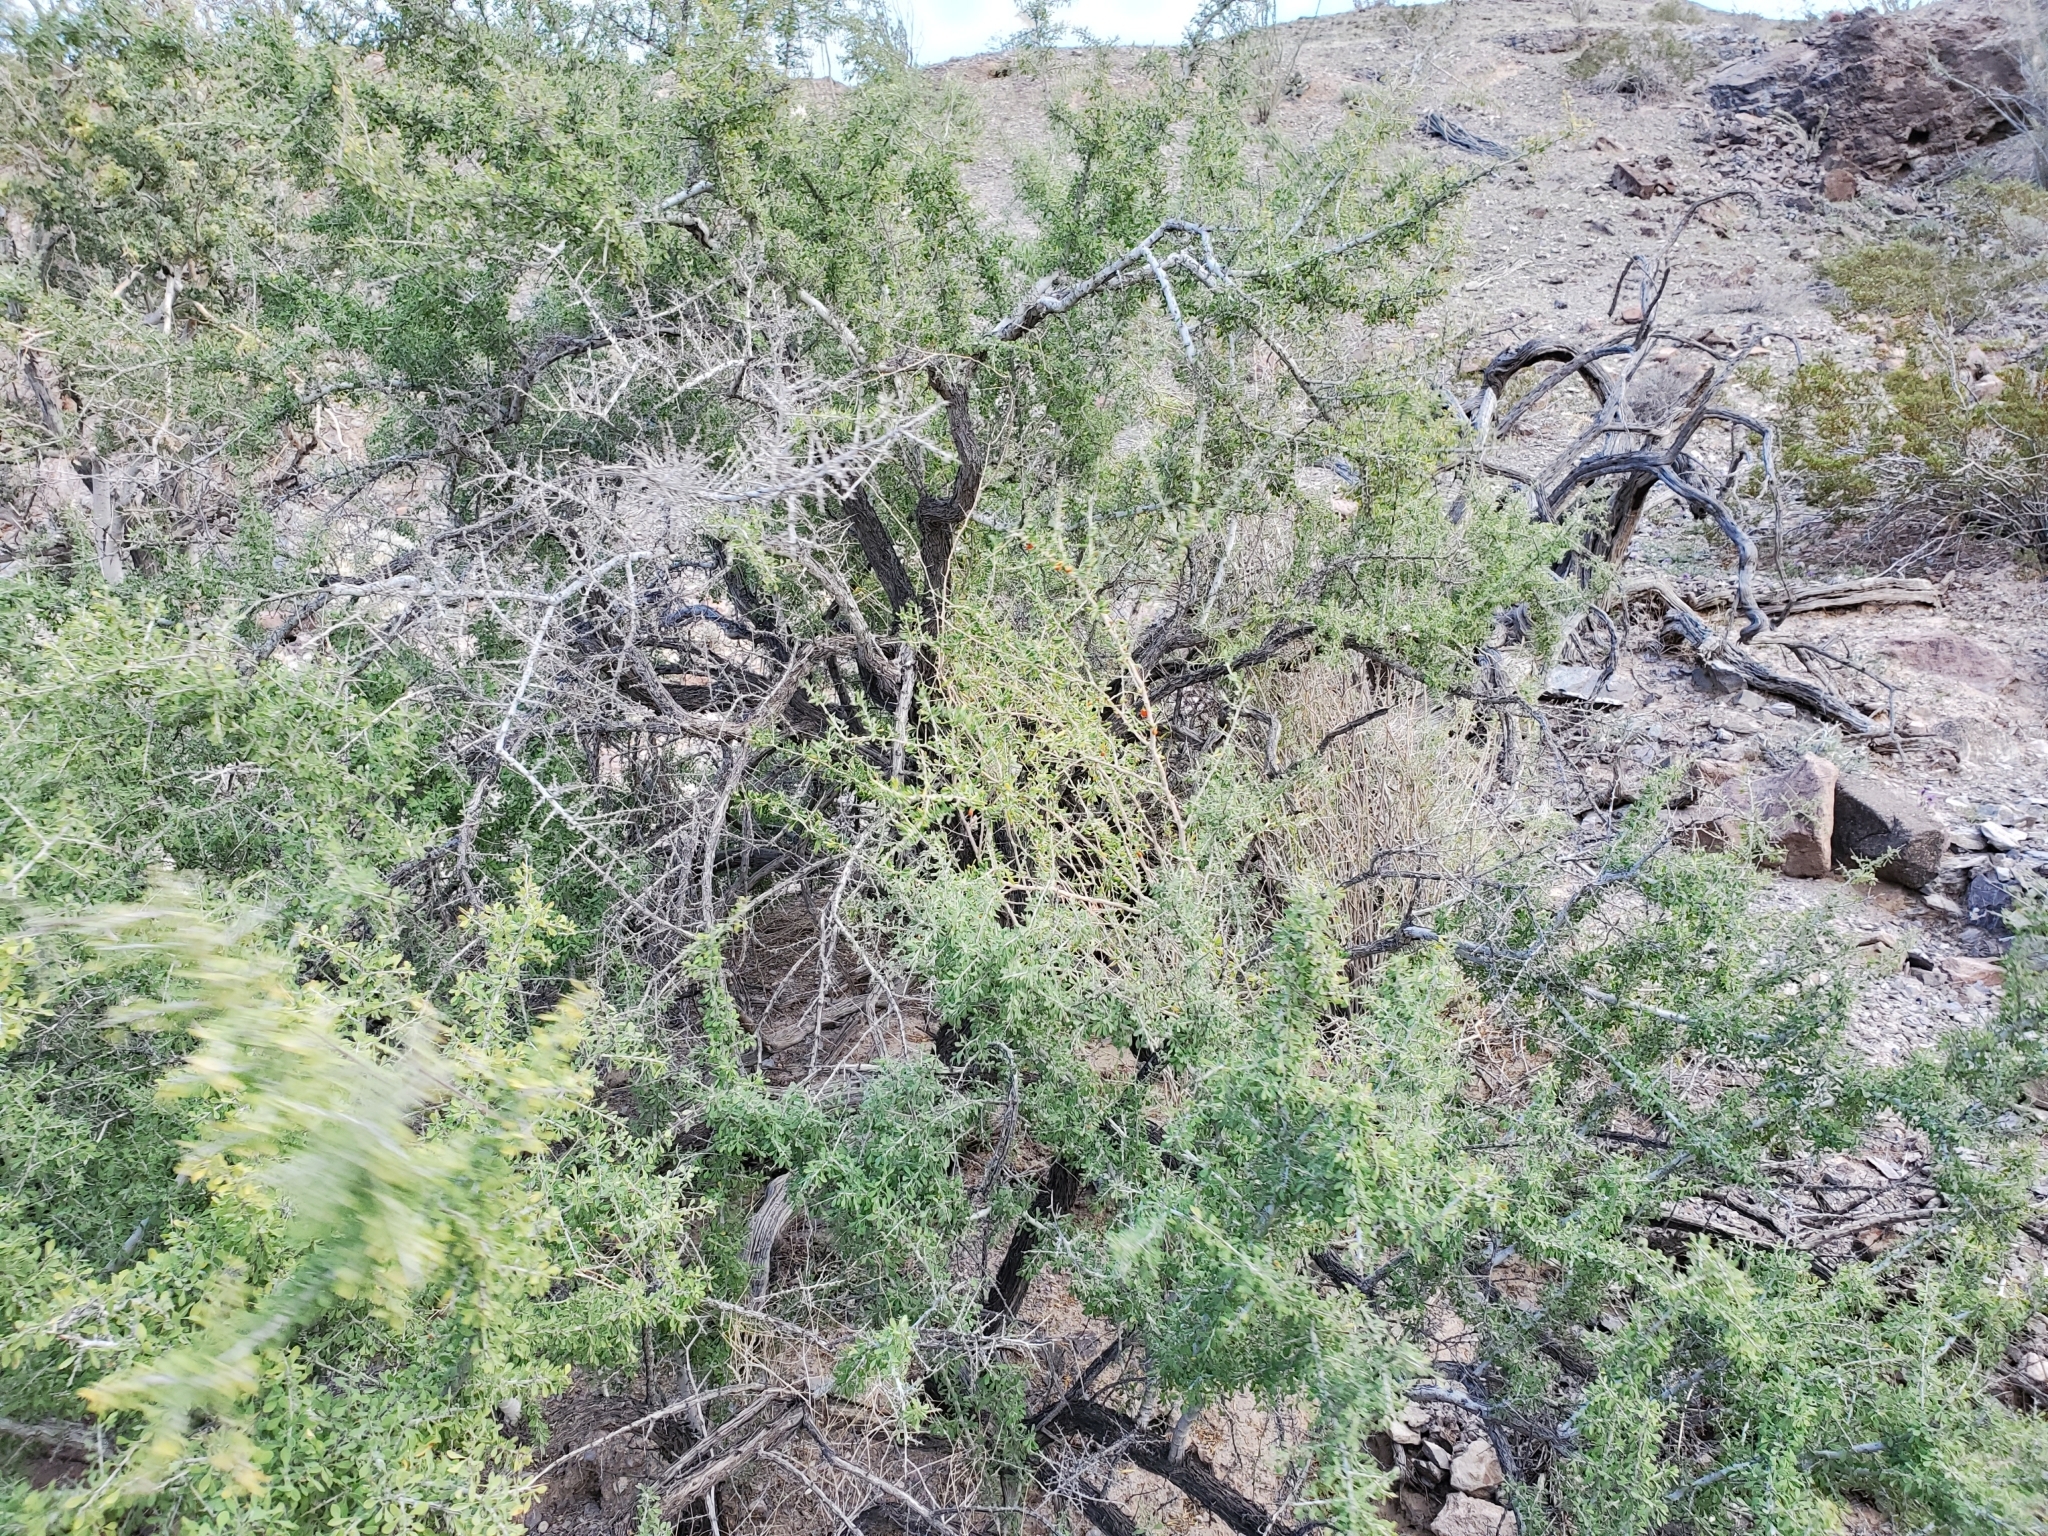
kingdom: Plantae
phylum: Tracheophyta
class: Magnoliopsida
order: Rosales
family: Rhamnaceae
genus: Condalia
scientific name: Condalia globosa
